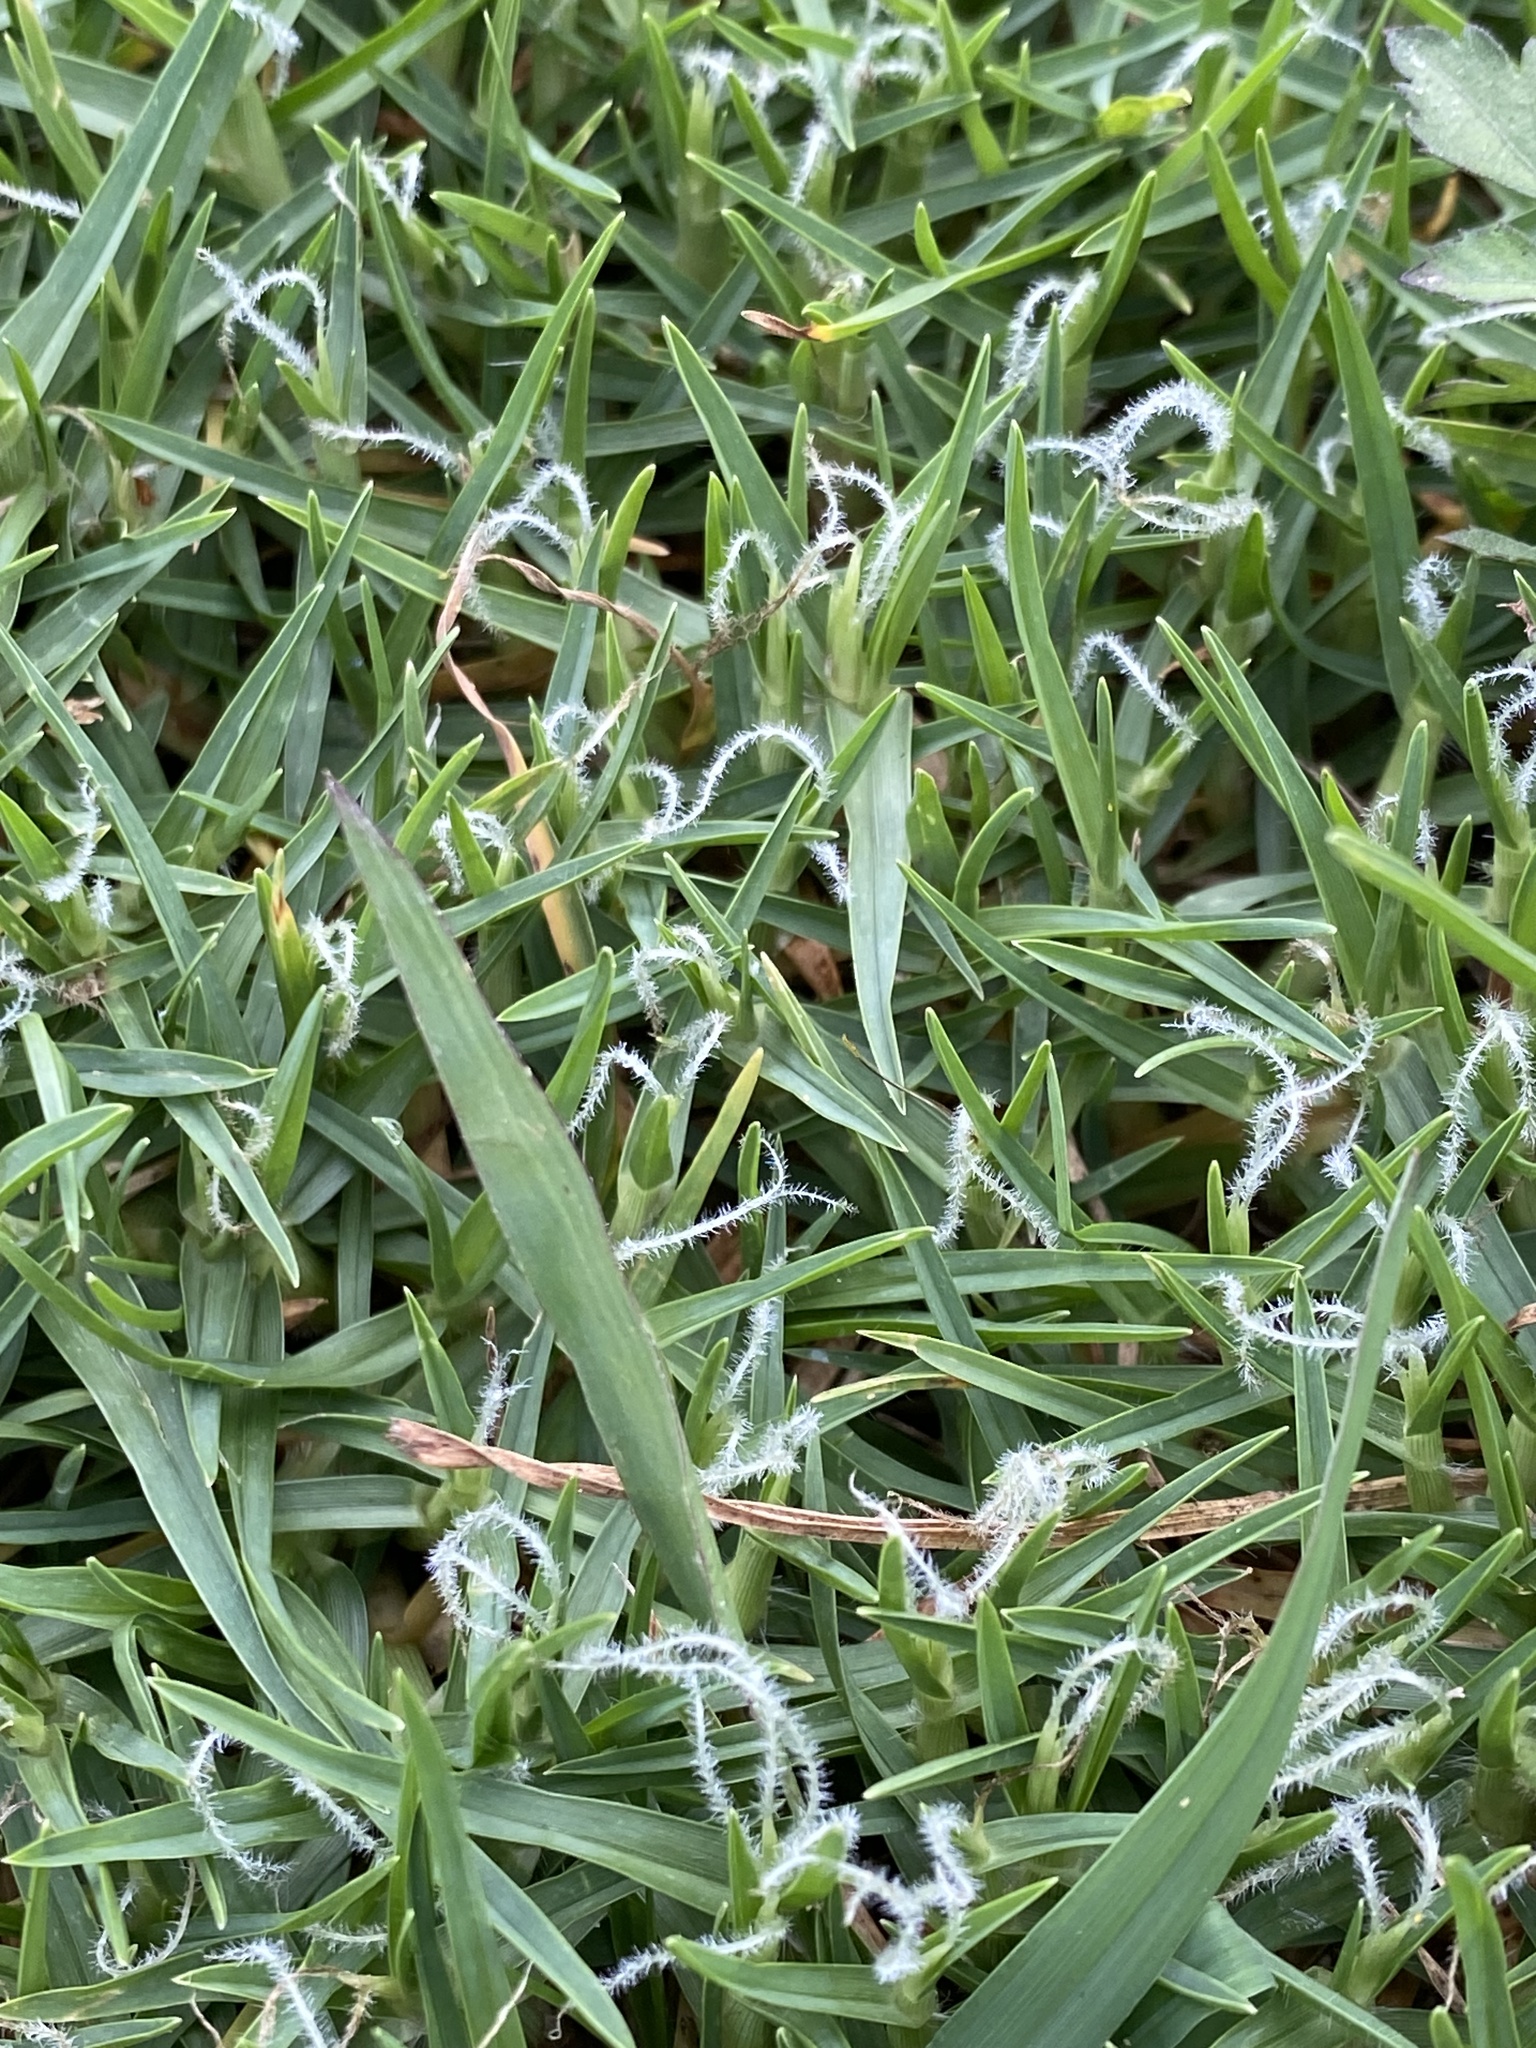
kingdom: Plantae
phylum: Tracheophyta
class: Liliopsida
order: Poales
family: Poaceae
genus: Cenchrus
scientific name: Cenchrus clandestinus
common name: Kikuyugrass
